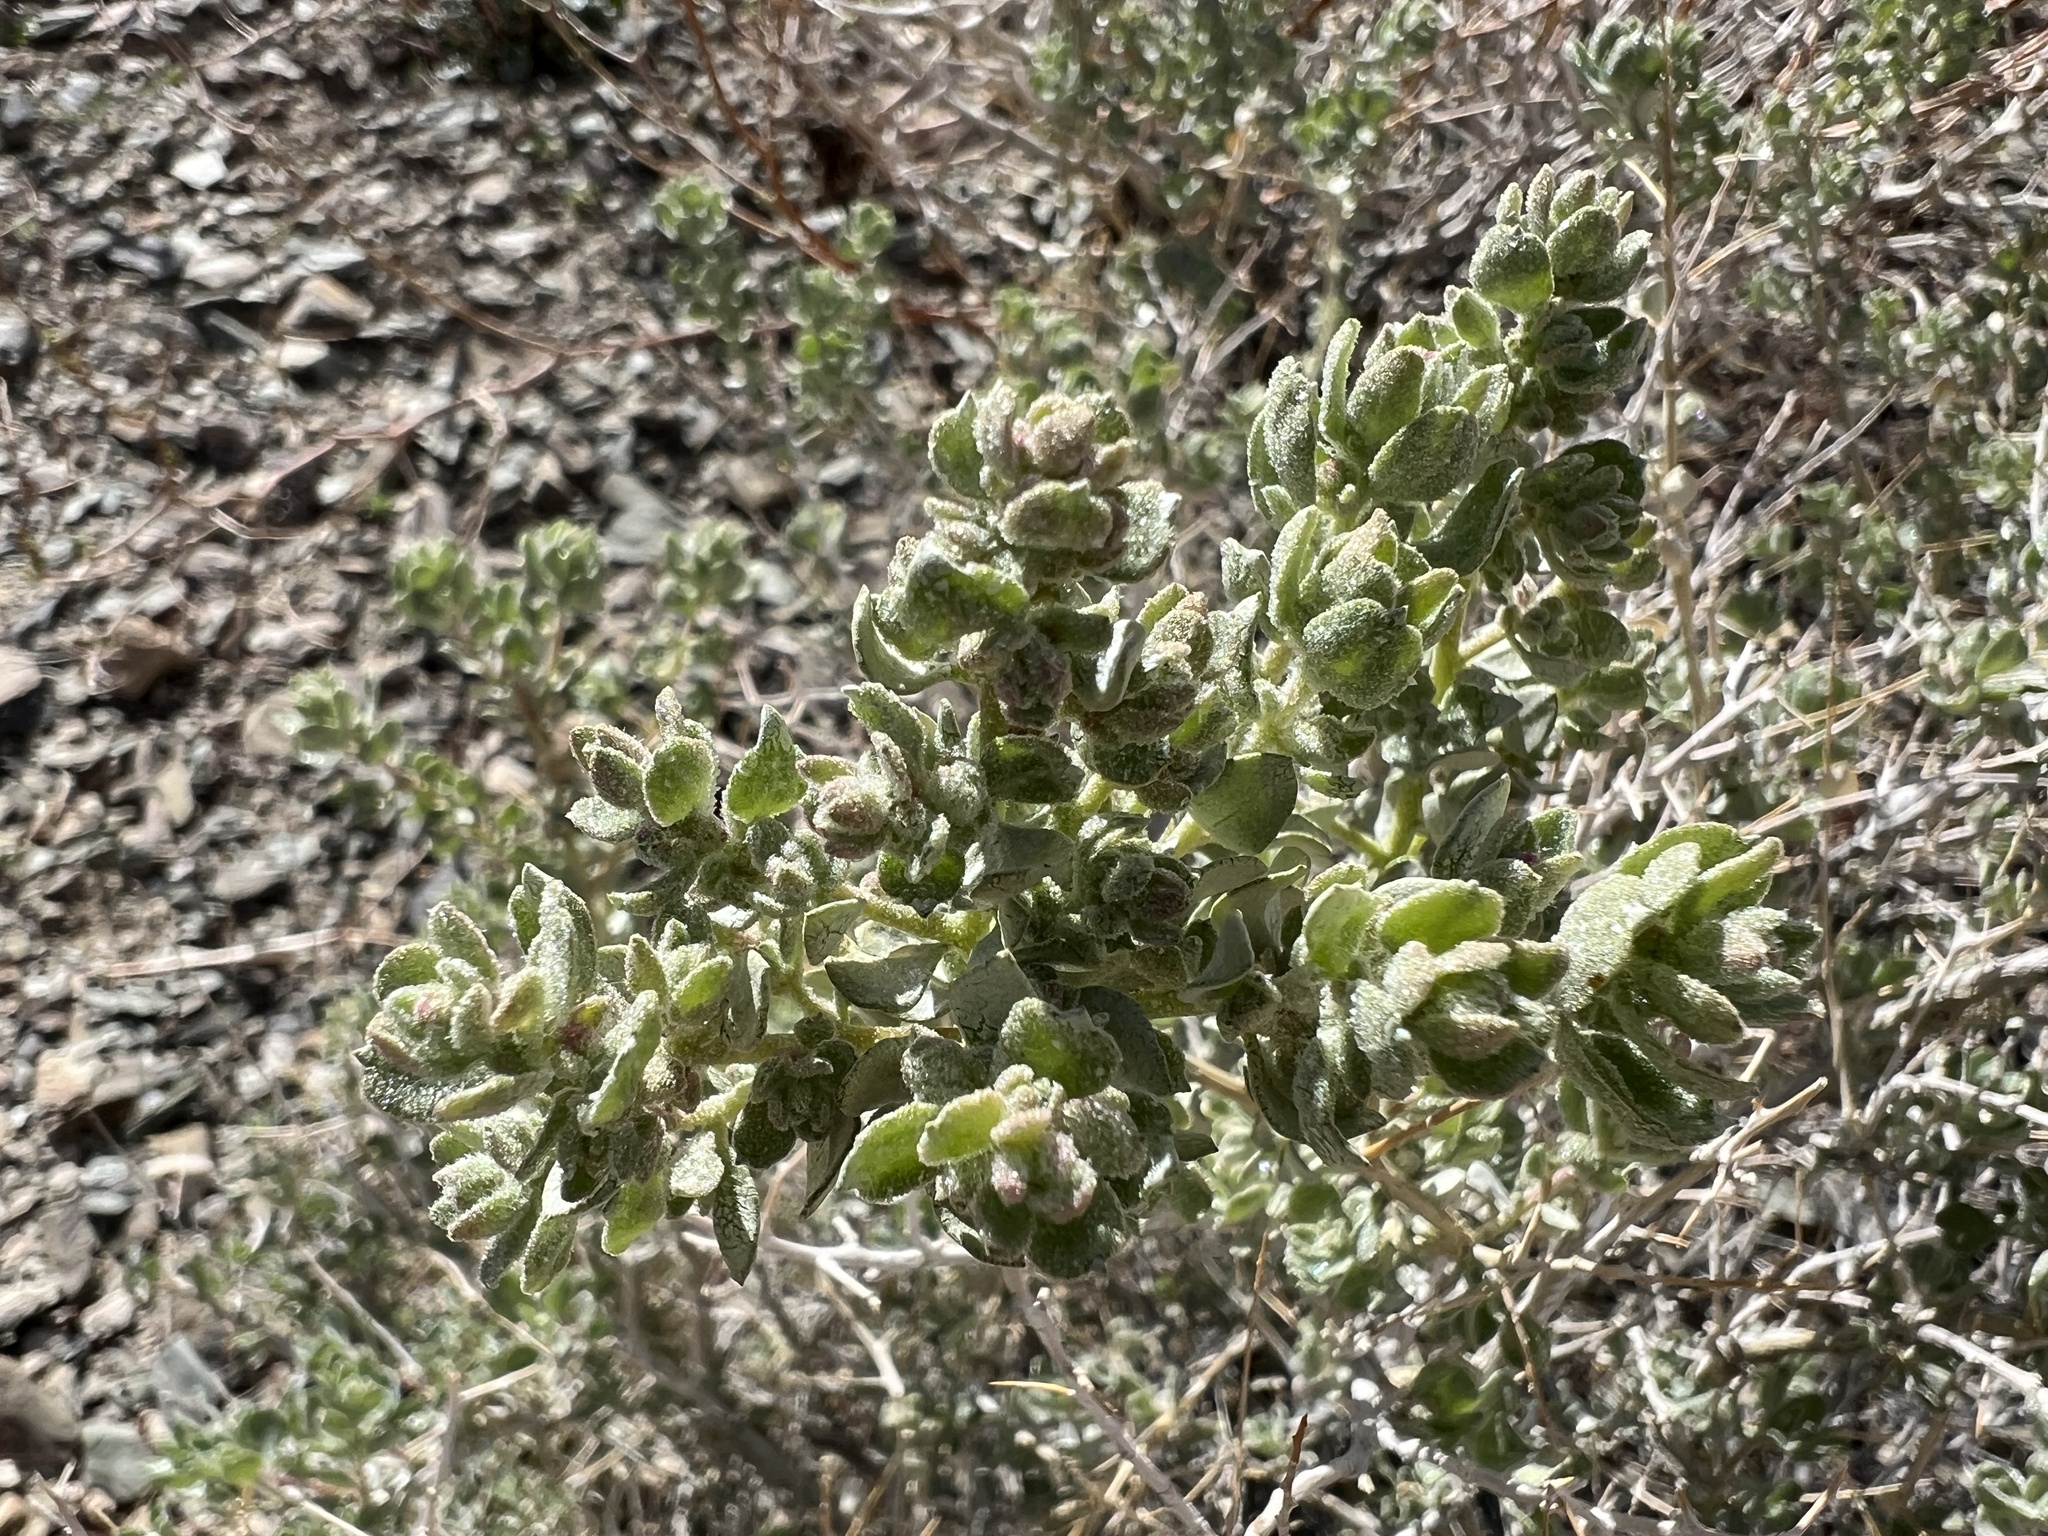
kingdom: Plantae
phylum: Tracheophyta
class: Magnoliopsida
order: Caryophyllales
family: Amaranthaceae
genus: Atriplex
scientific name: Atriplex confertifolia
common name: Shadscale
